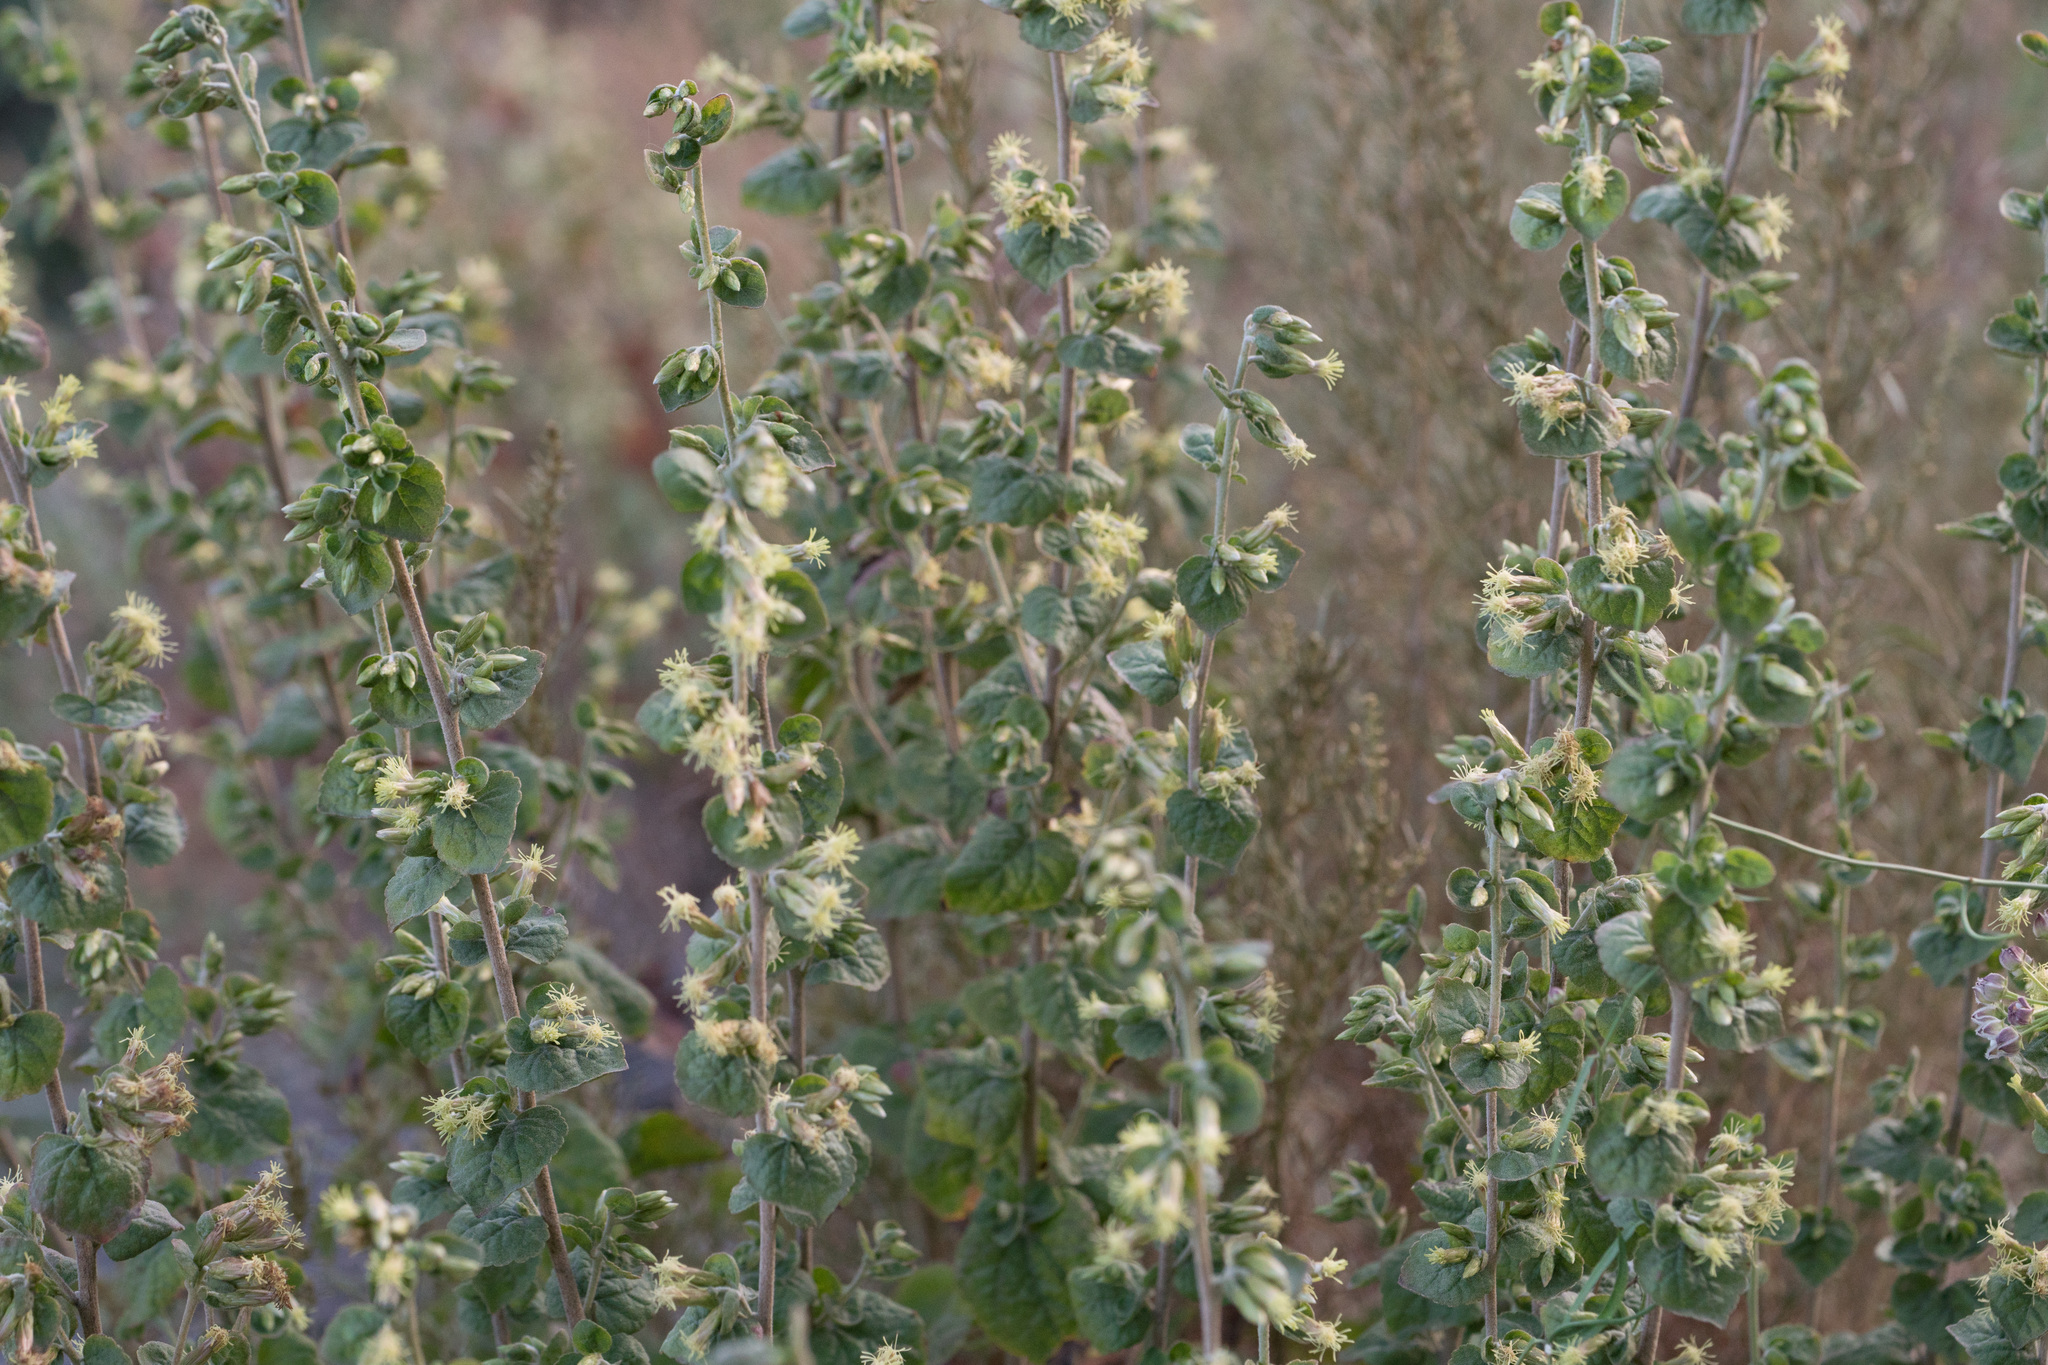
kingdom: Plantae
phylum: Tracheophyta
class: Magnoliopsida
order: Asterales
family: Asteraceae
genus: Brickellia
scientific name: Brickellia californica
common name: California brickellbush
